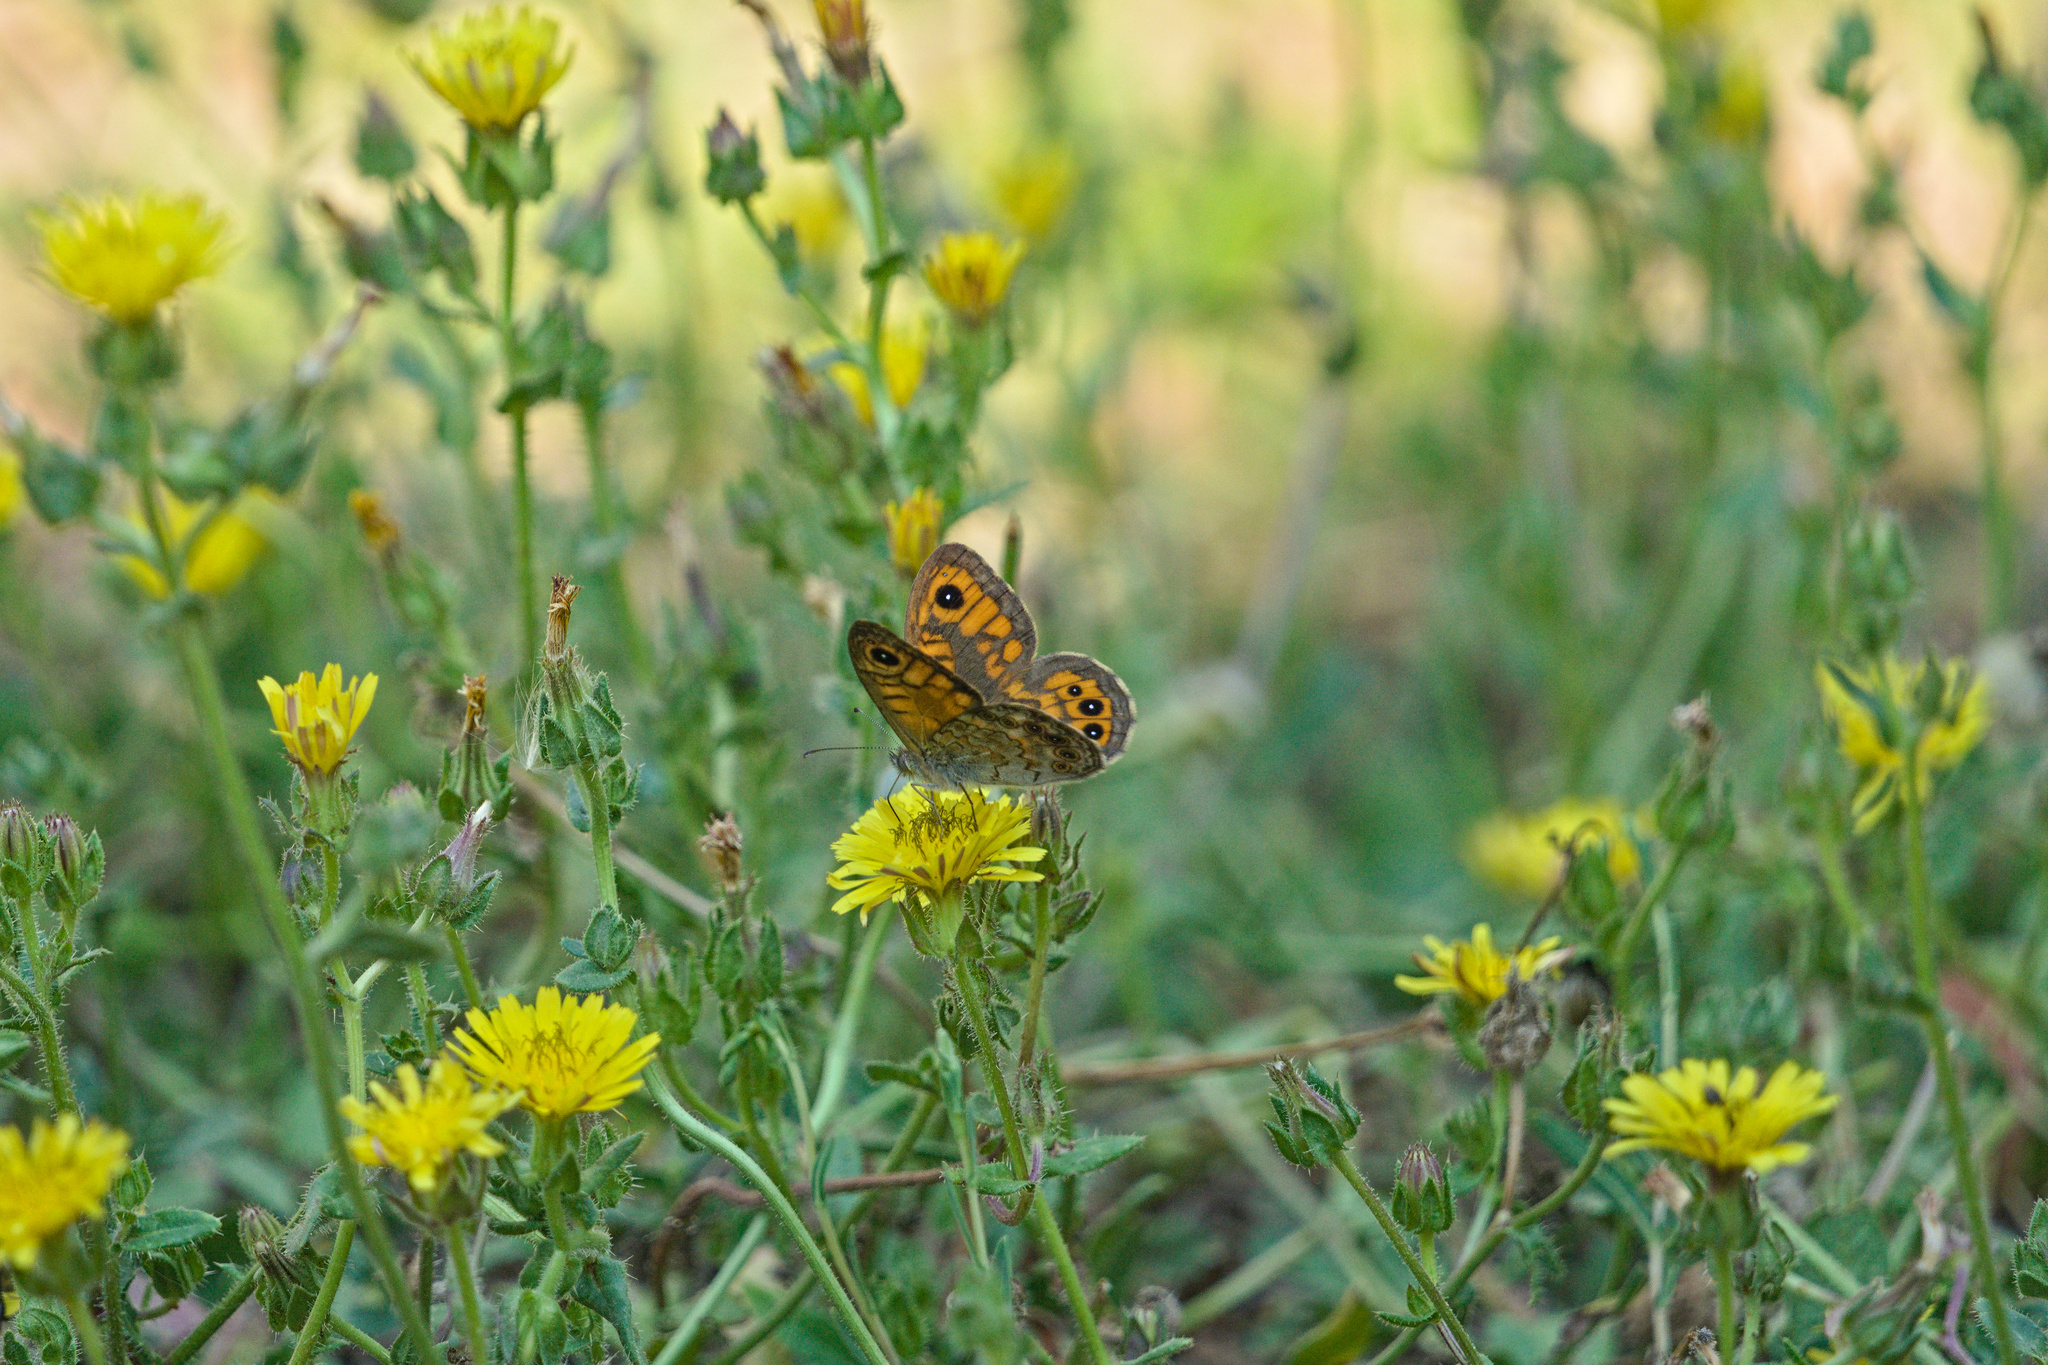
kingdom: Animalia
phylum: Arthropoda
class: Insecta
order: Lepidoptera
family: Nymphalidae
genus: Pararge
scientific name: Pararge Lasiommata megera
